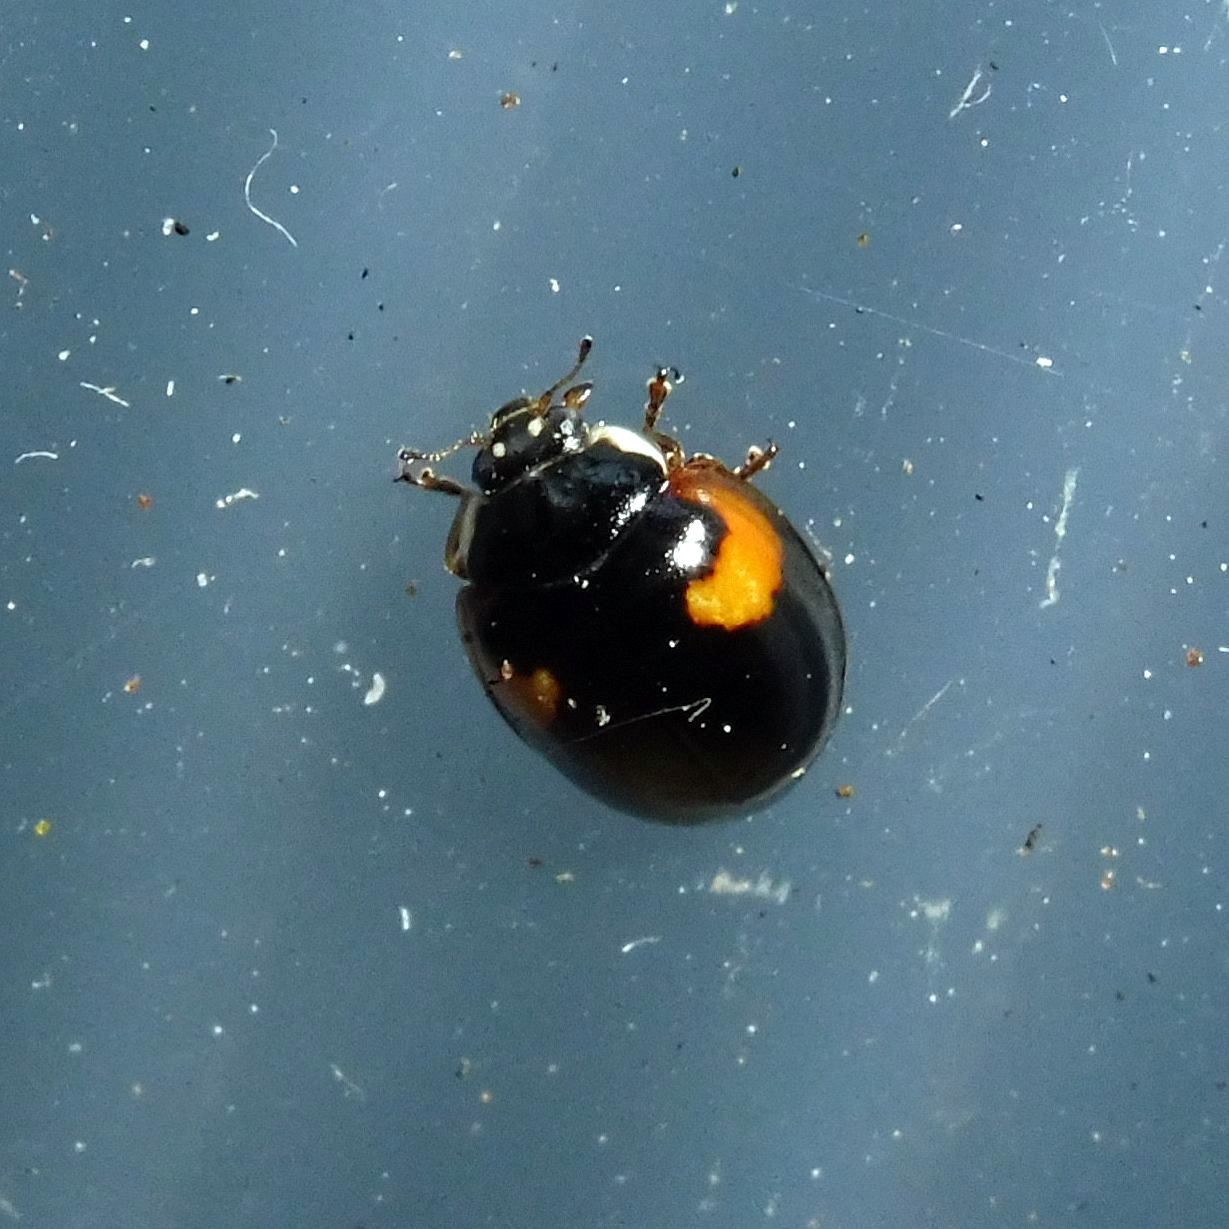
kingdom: Animalia
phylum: Arthropoda
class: Insecta
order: Coleoptera
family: Coccinellidae
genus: Adalia
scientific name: Adalia decempunctata
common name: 10-spot ladybird
